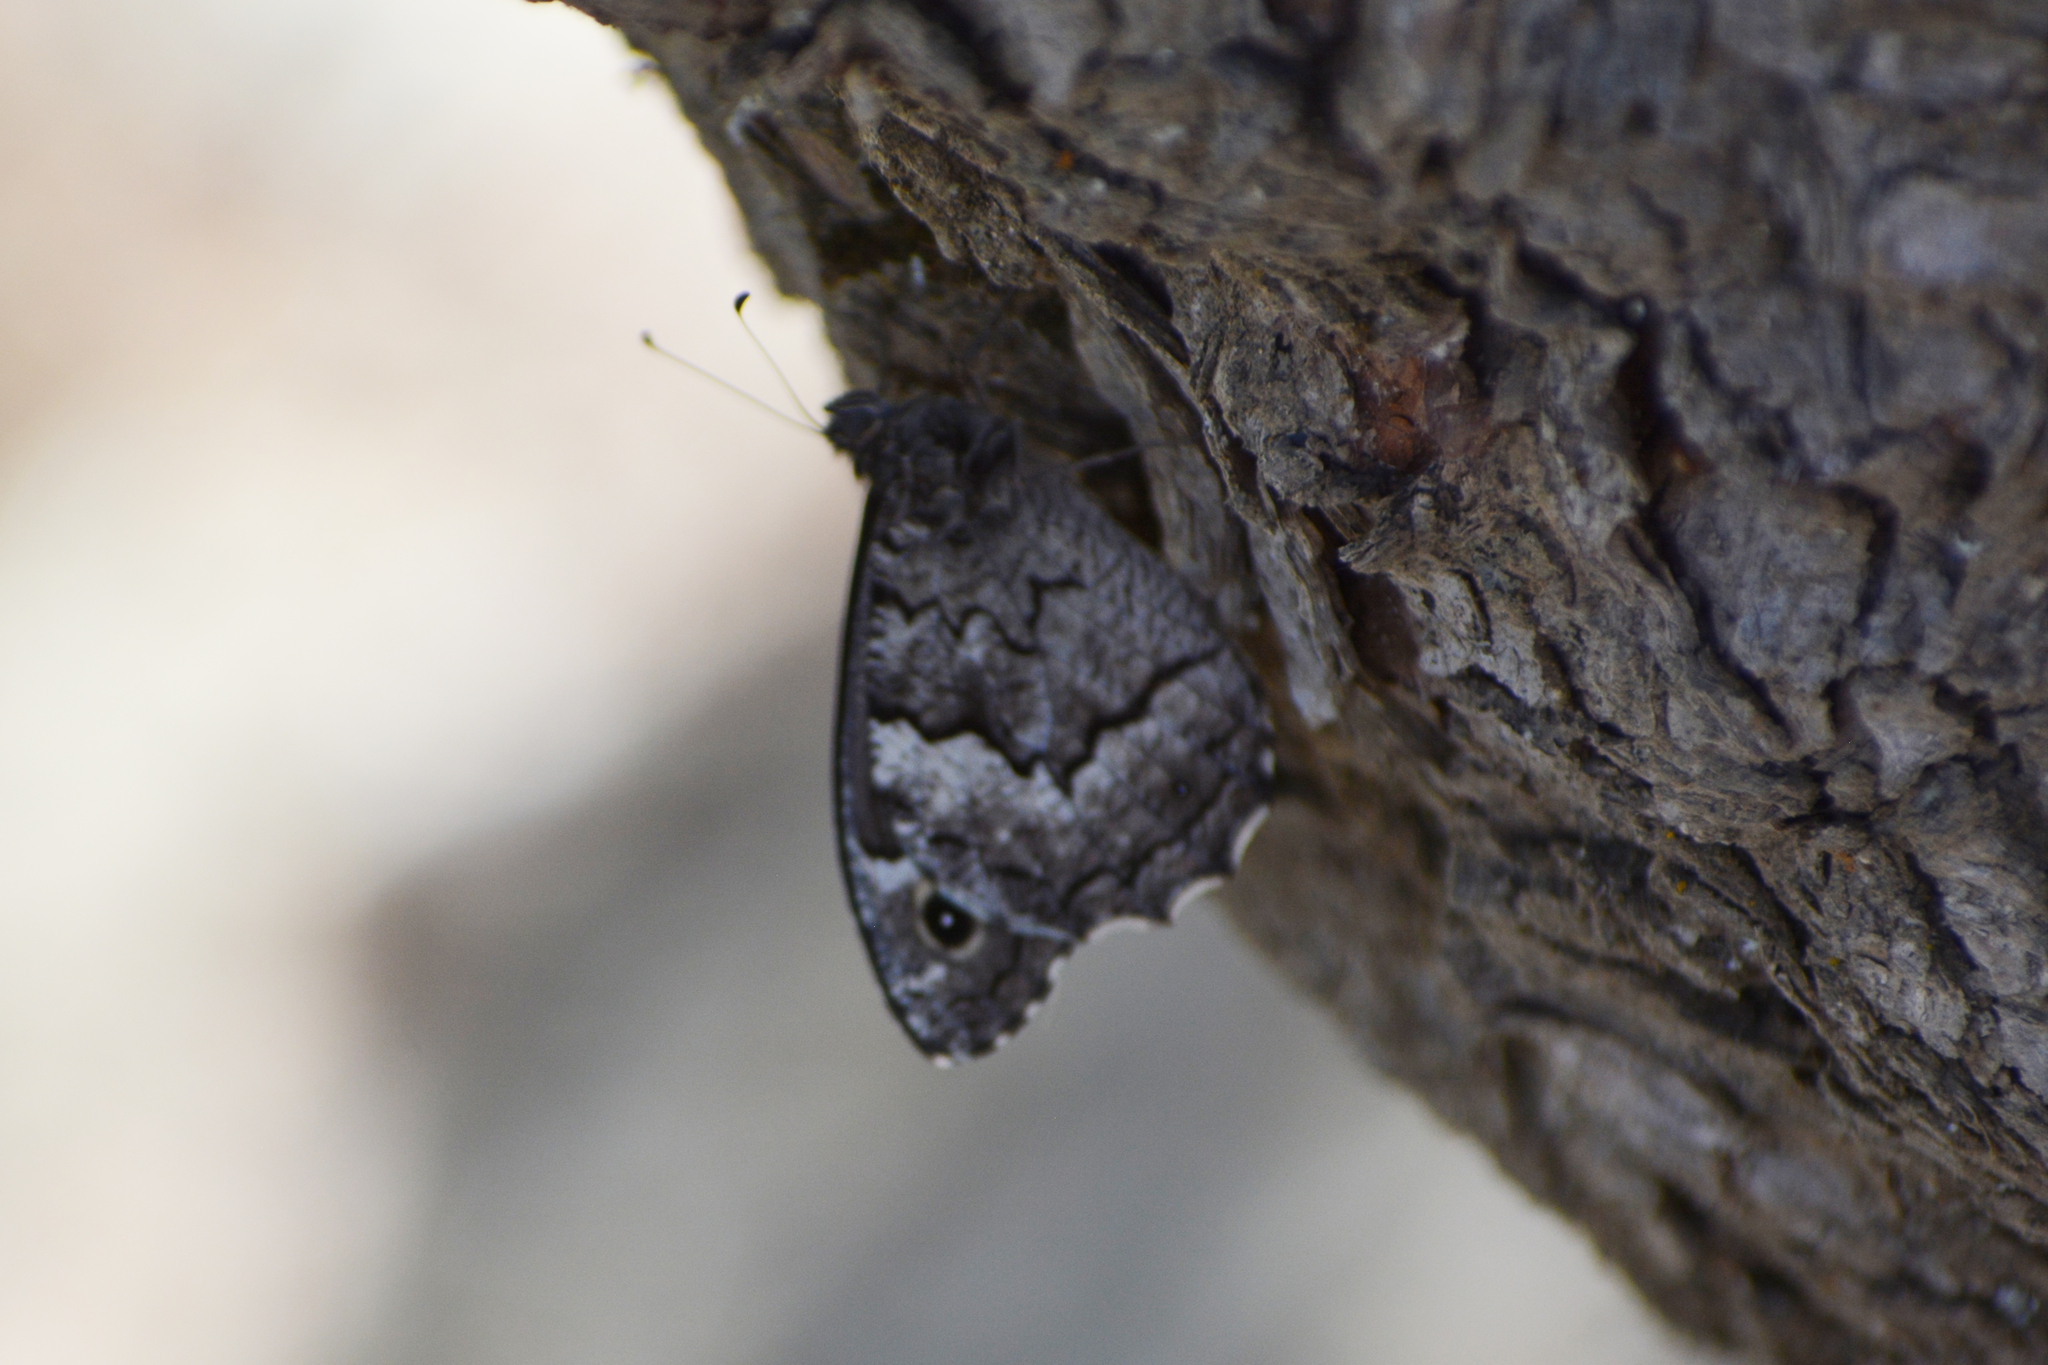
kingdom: Animalia
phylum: Arthropoda
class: Insecta
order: Lepidoptera
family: Nymphalidae
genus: Hipparchia
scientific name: Hipparchia syriaca
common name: Eastern rock grayling
